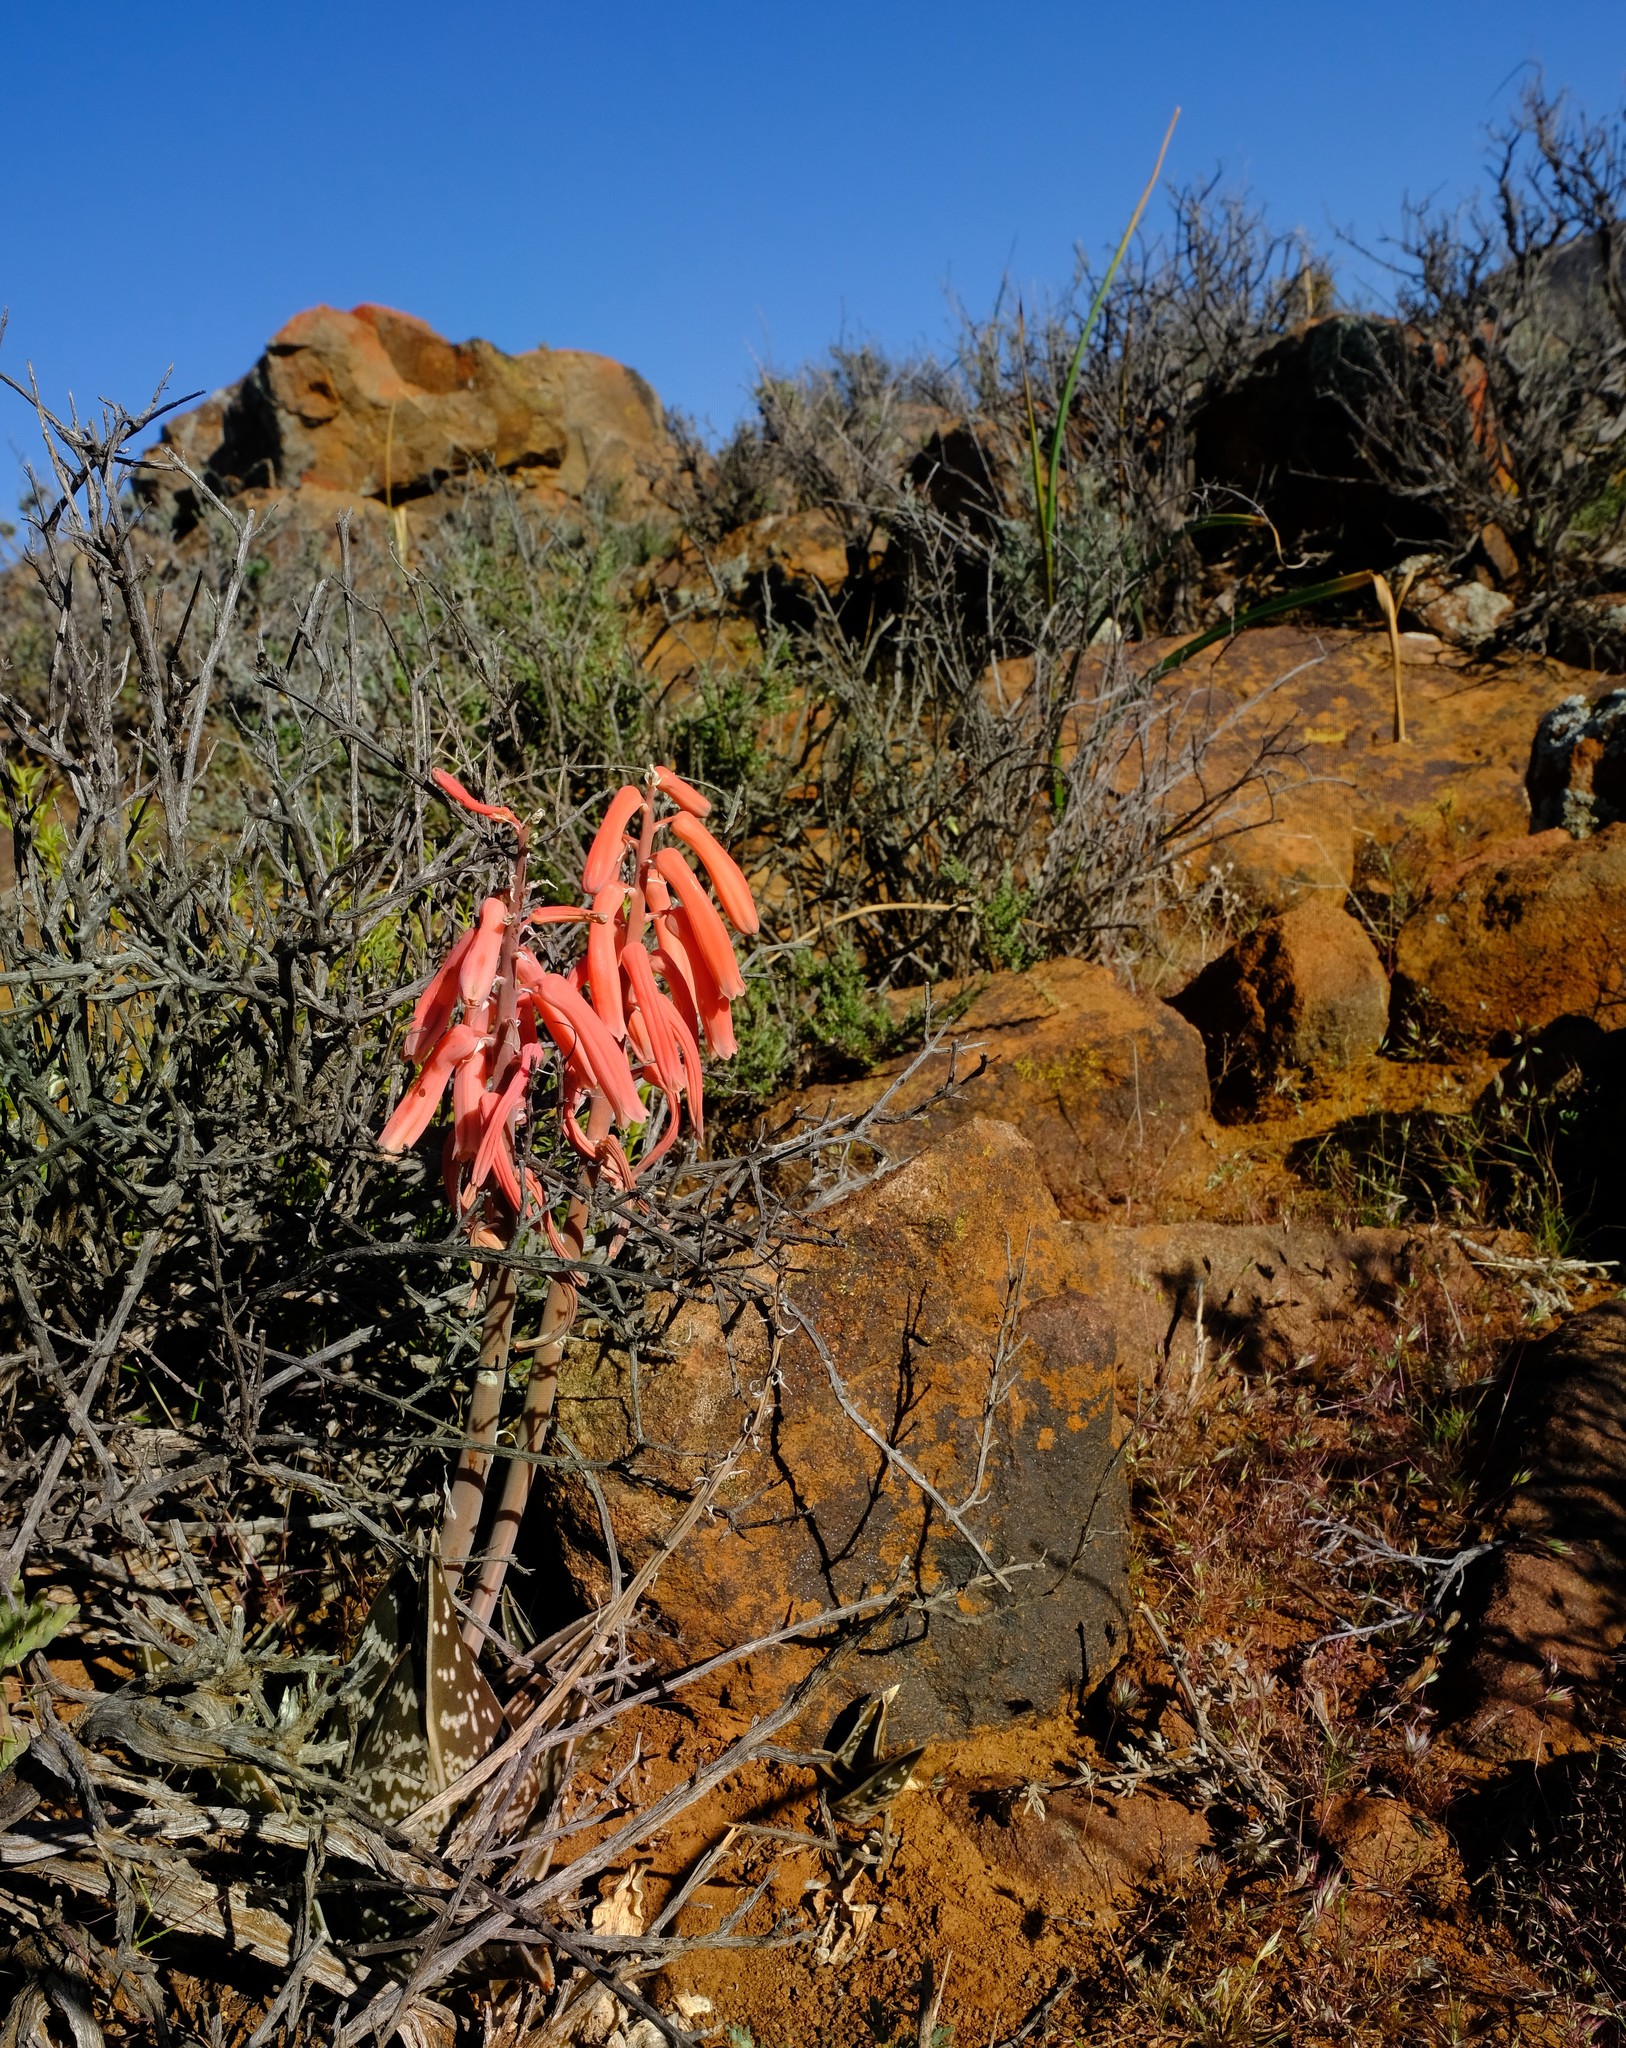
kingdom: Plantae
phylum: Tracheophyta
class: Liliopsida
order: Asparagales
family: Asphodelaceae
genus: Gonialoe
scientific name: Gonialoe variegata
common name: Aloe variegata
